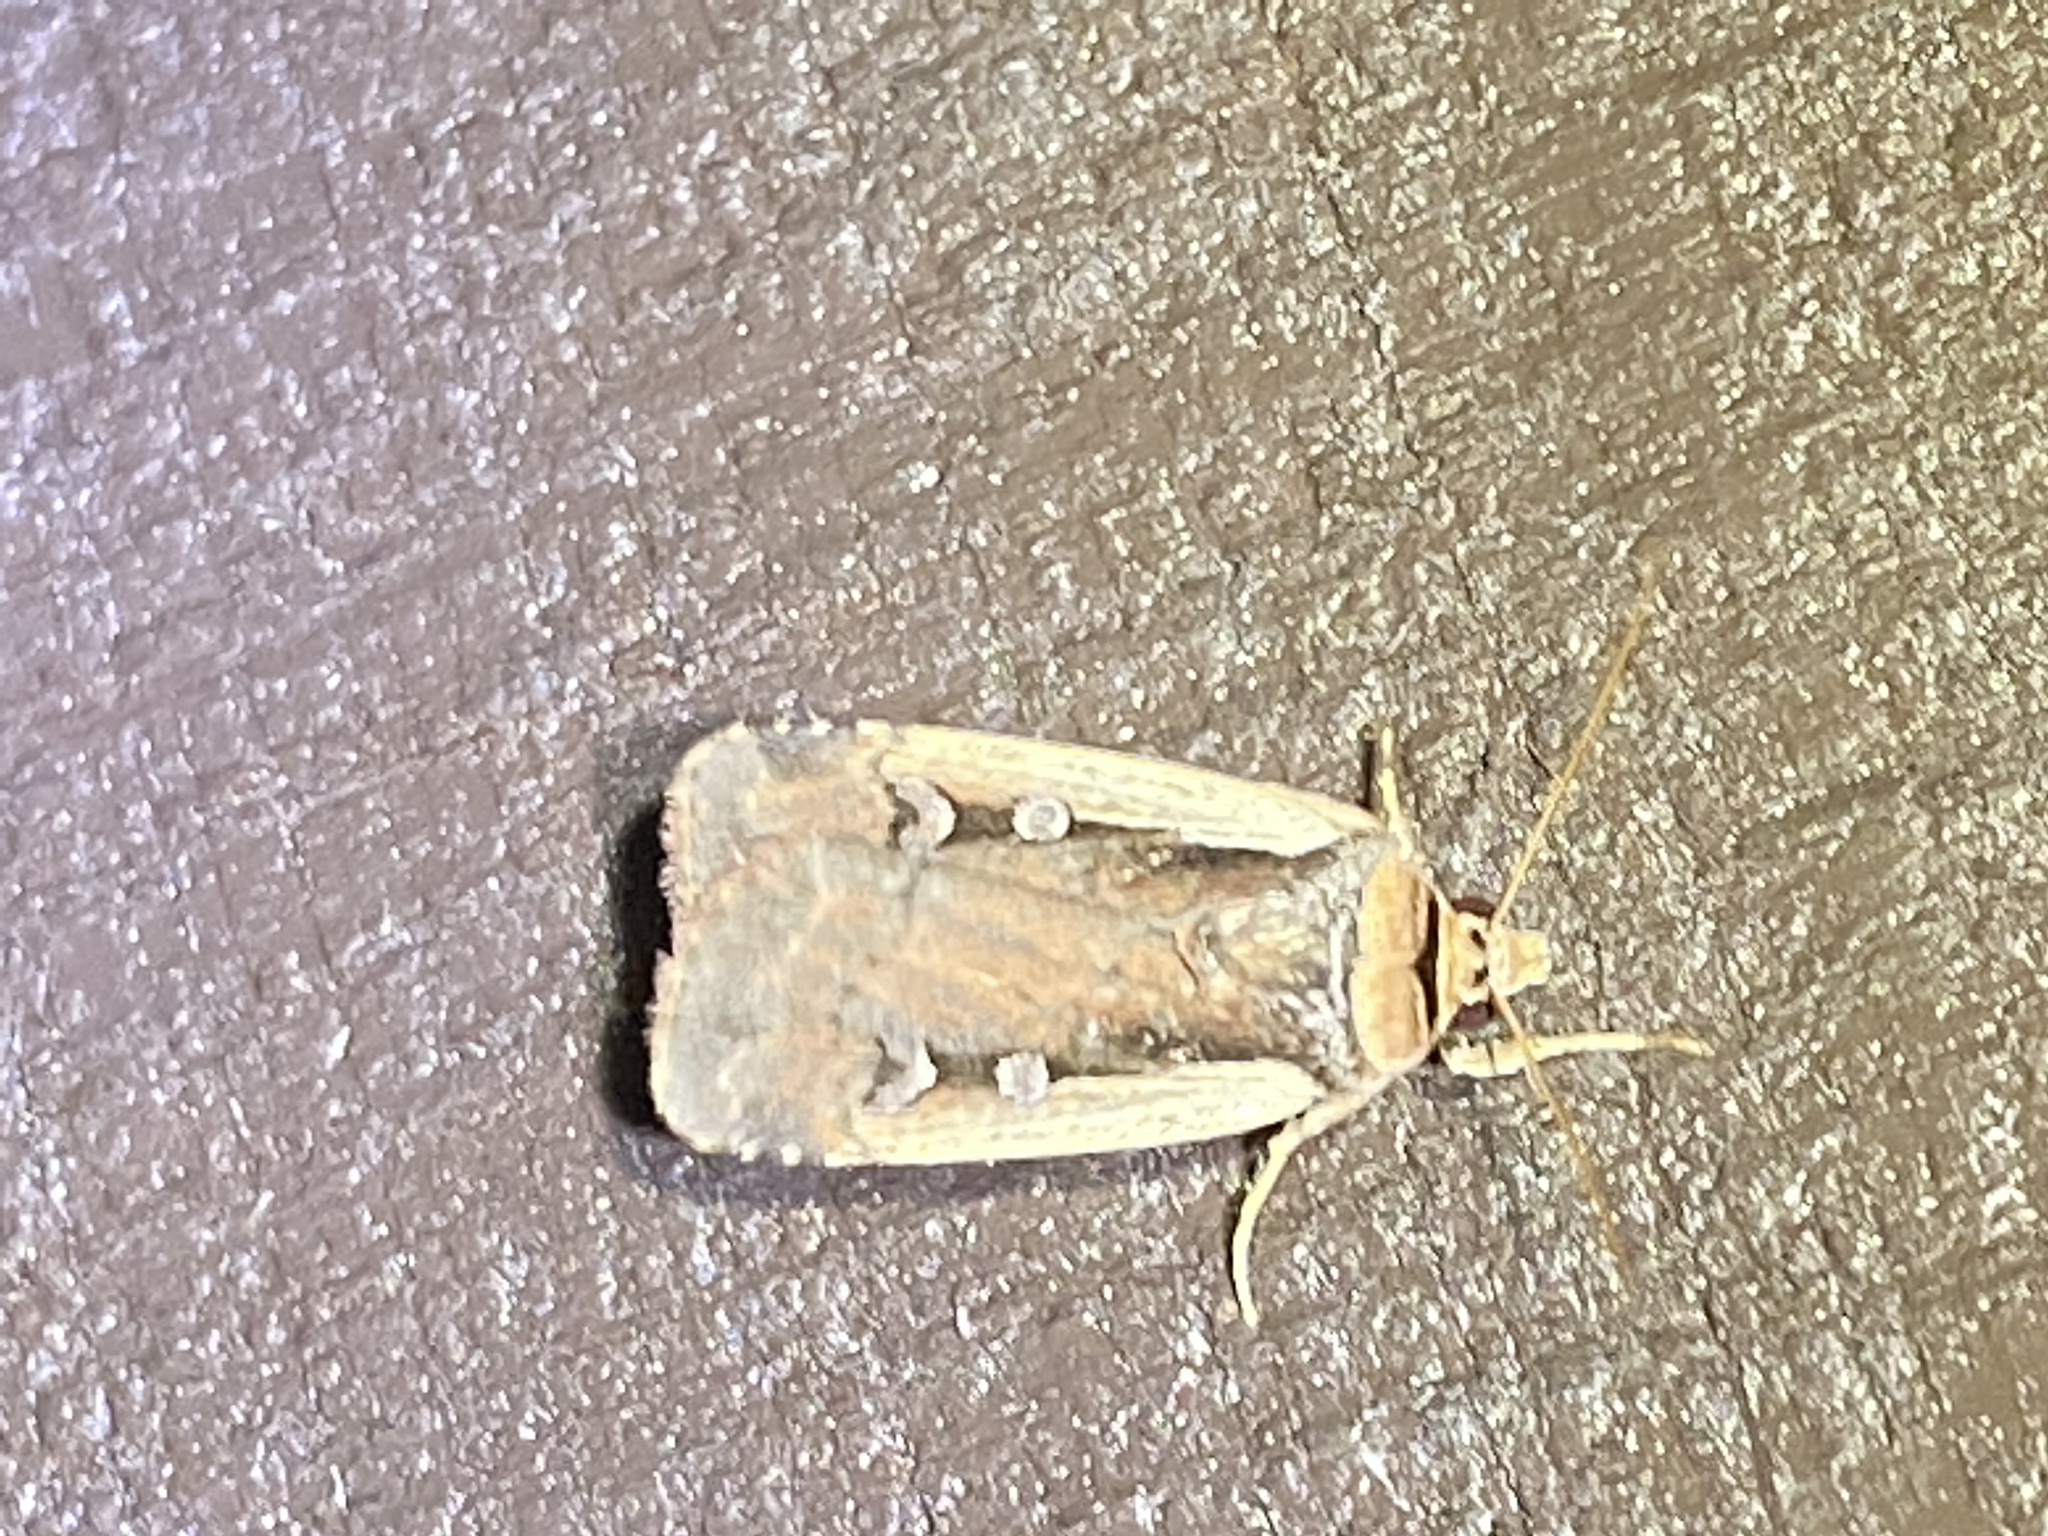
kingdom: Animalia
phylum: Arthropoda
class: Insecta
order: Lepidoptera
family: Noctuidae
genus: Ochropleura
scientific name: Ochropleura implecta
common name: Flame-shouldered dart
